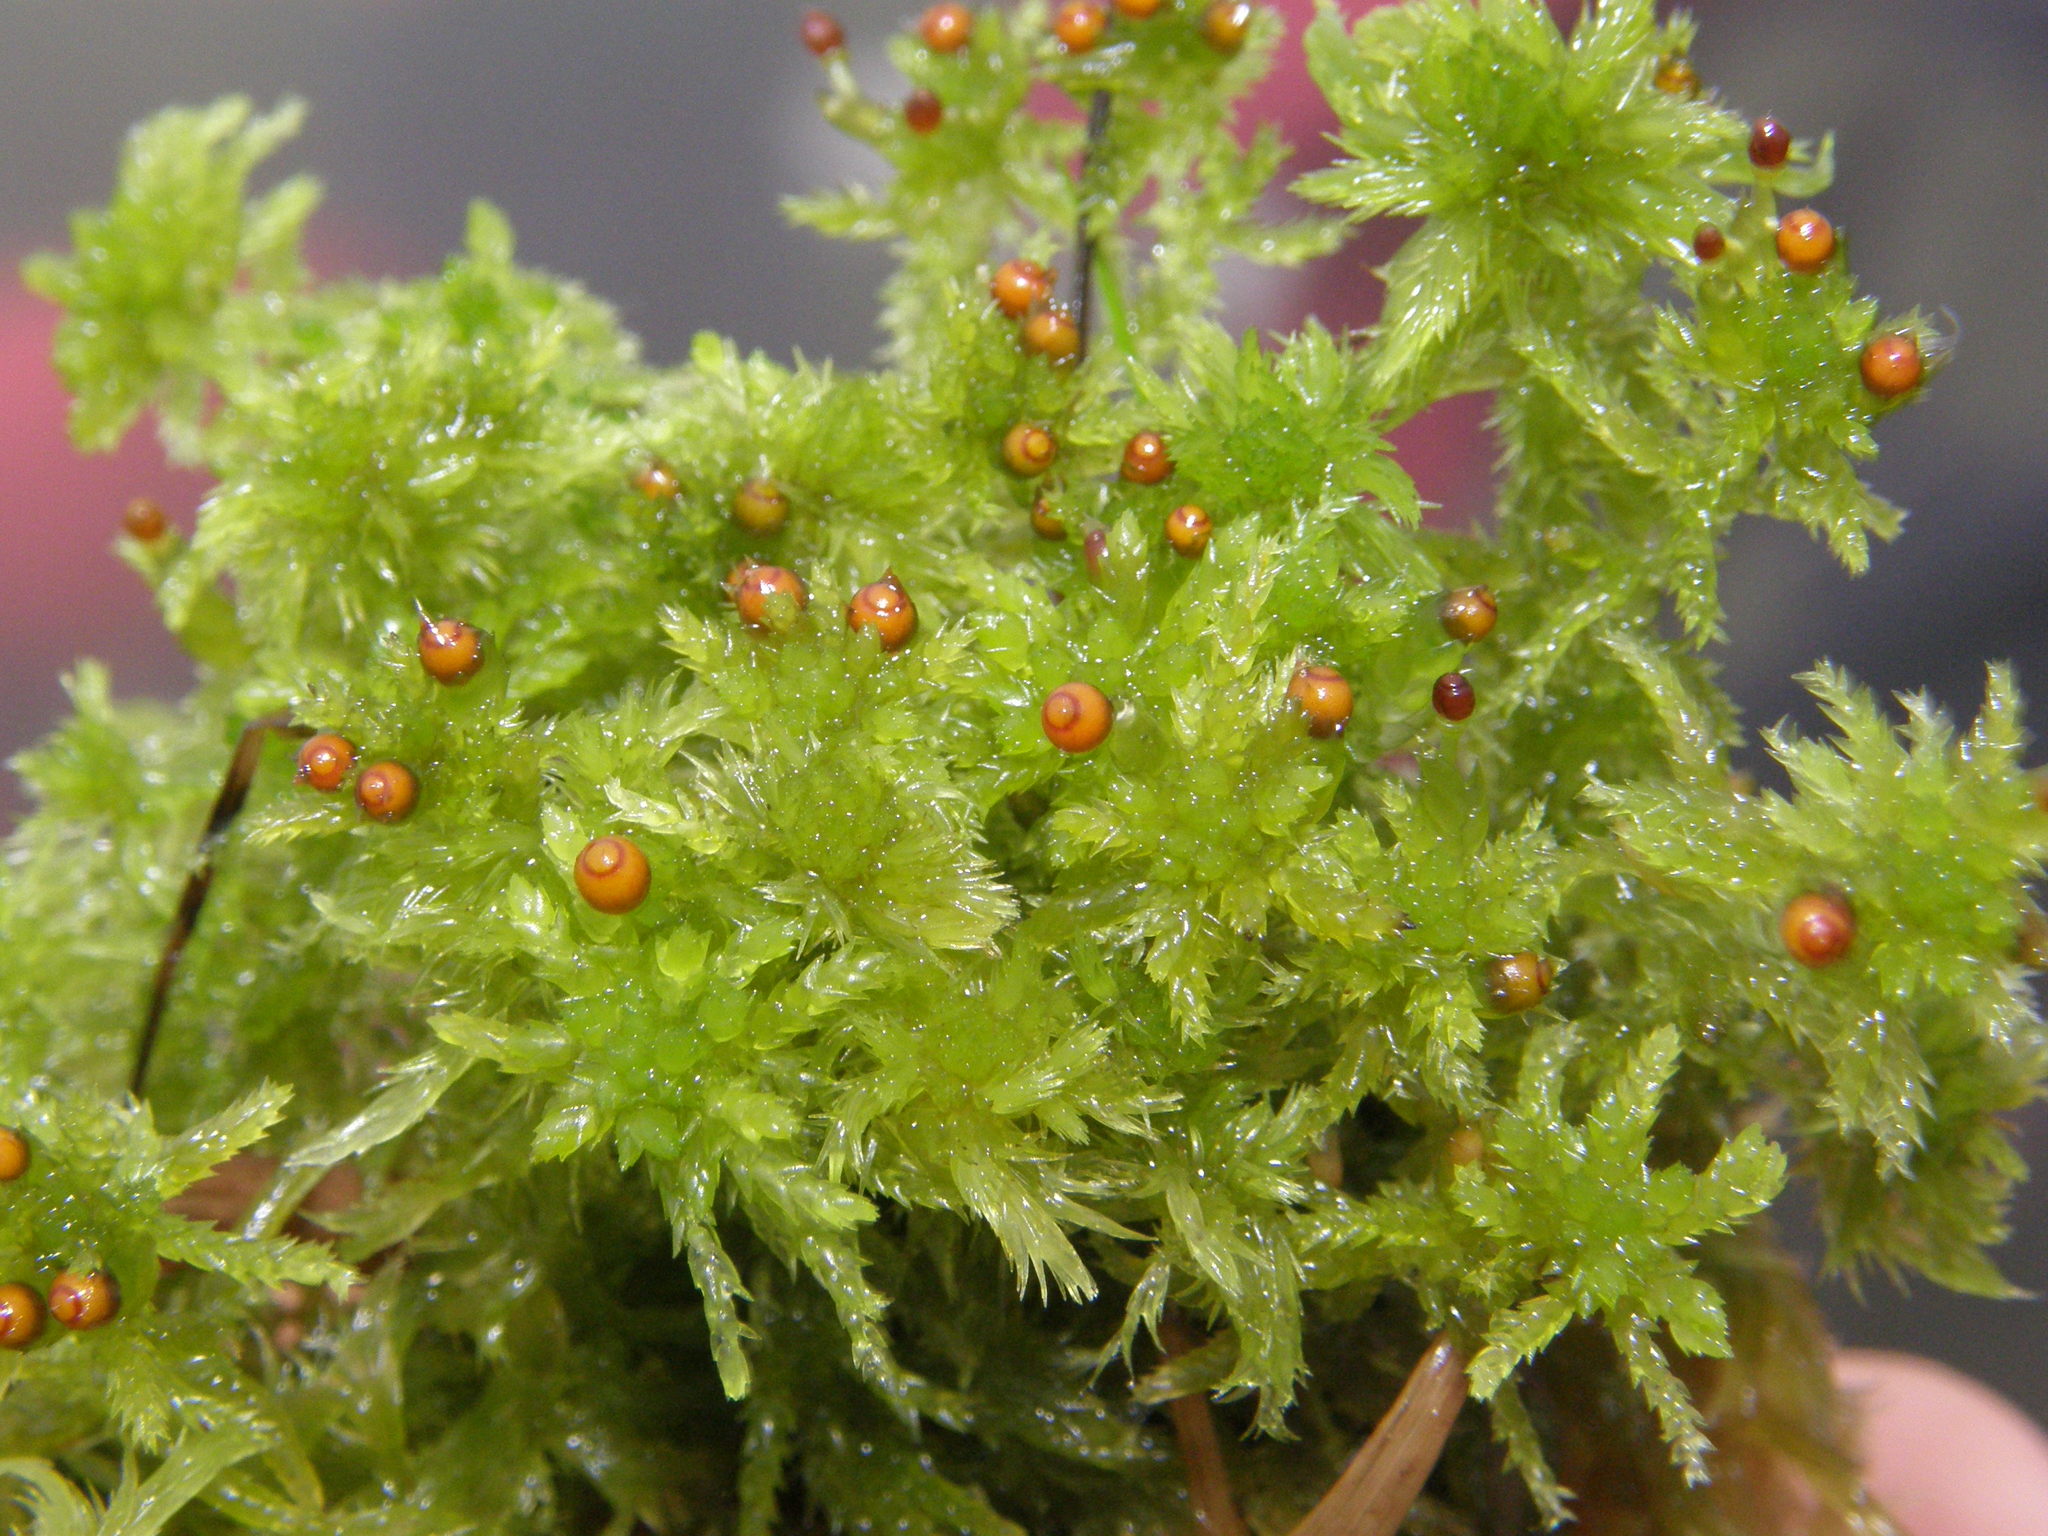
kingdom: Plantae
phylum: Bryophyta
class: Sphagnopsida
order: Sphagnales
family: Sphagnaceae
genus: Sphagnum
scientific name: Sphagnum tenellum
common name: Soft bog-moss
